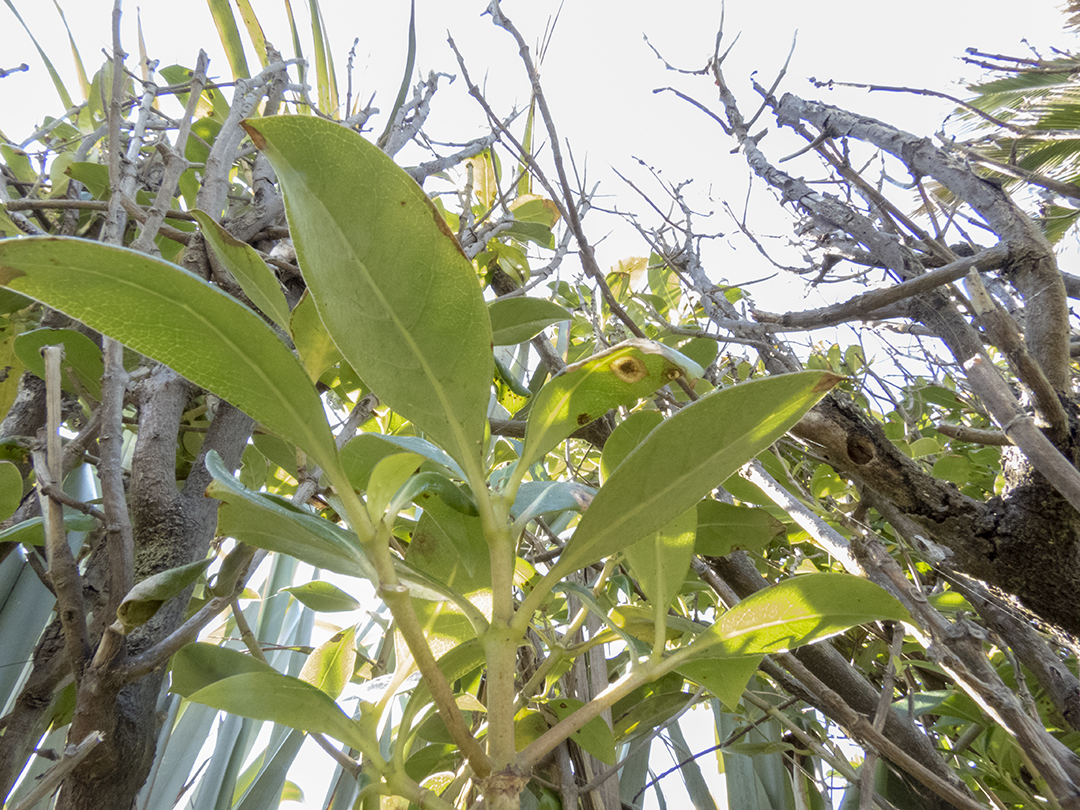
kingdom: Plantae
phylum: Tracheophyta
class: Magnoliopsida
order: Gentianales
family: Rubiaceae
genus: Coprosma
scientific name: Coprosma robusta
